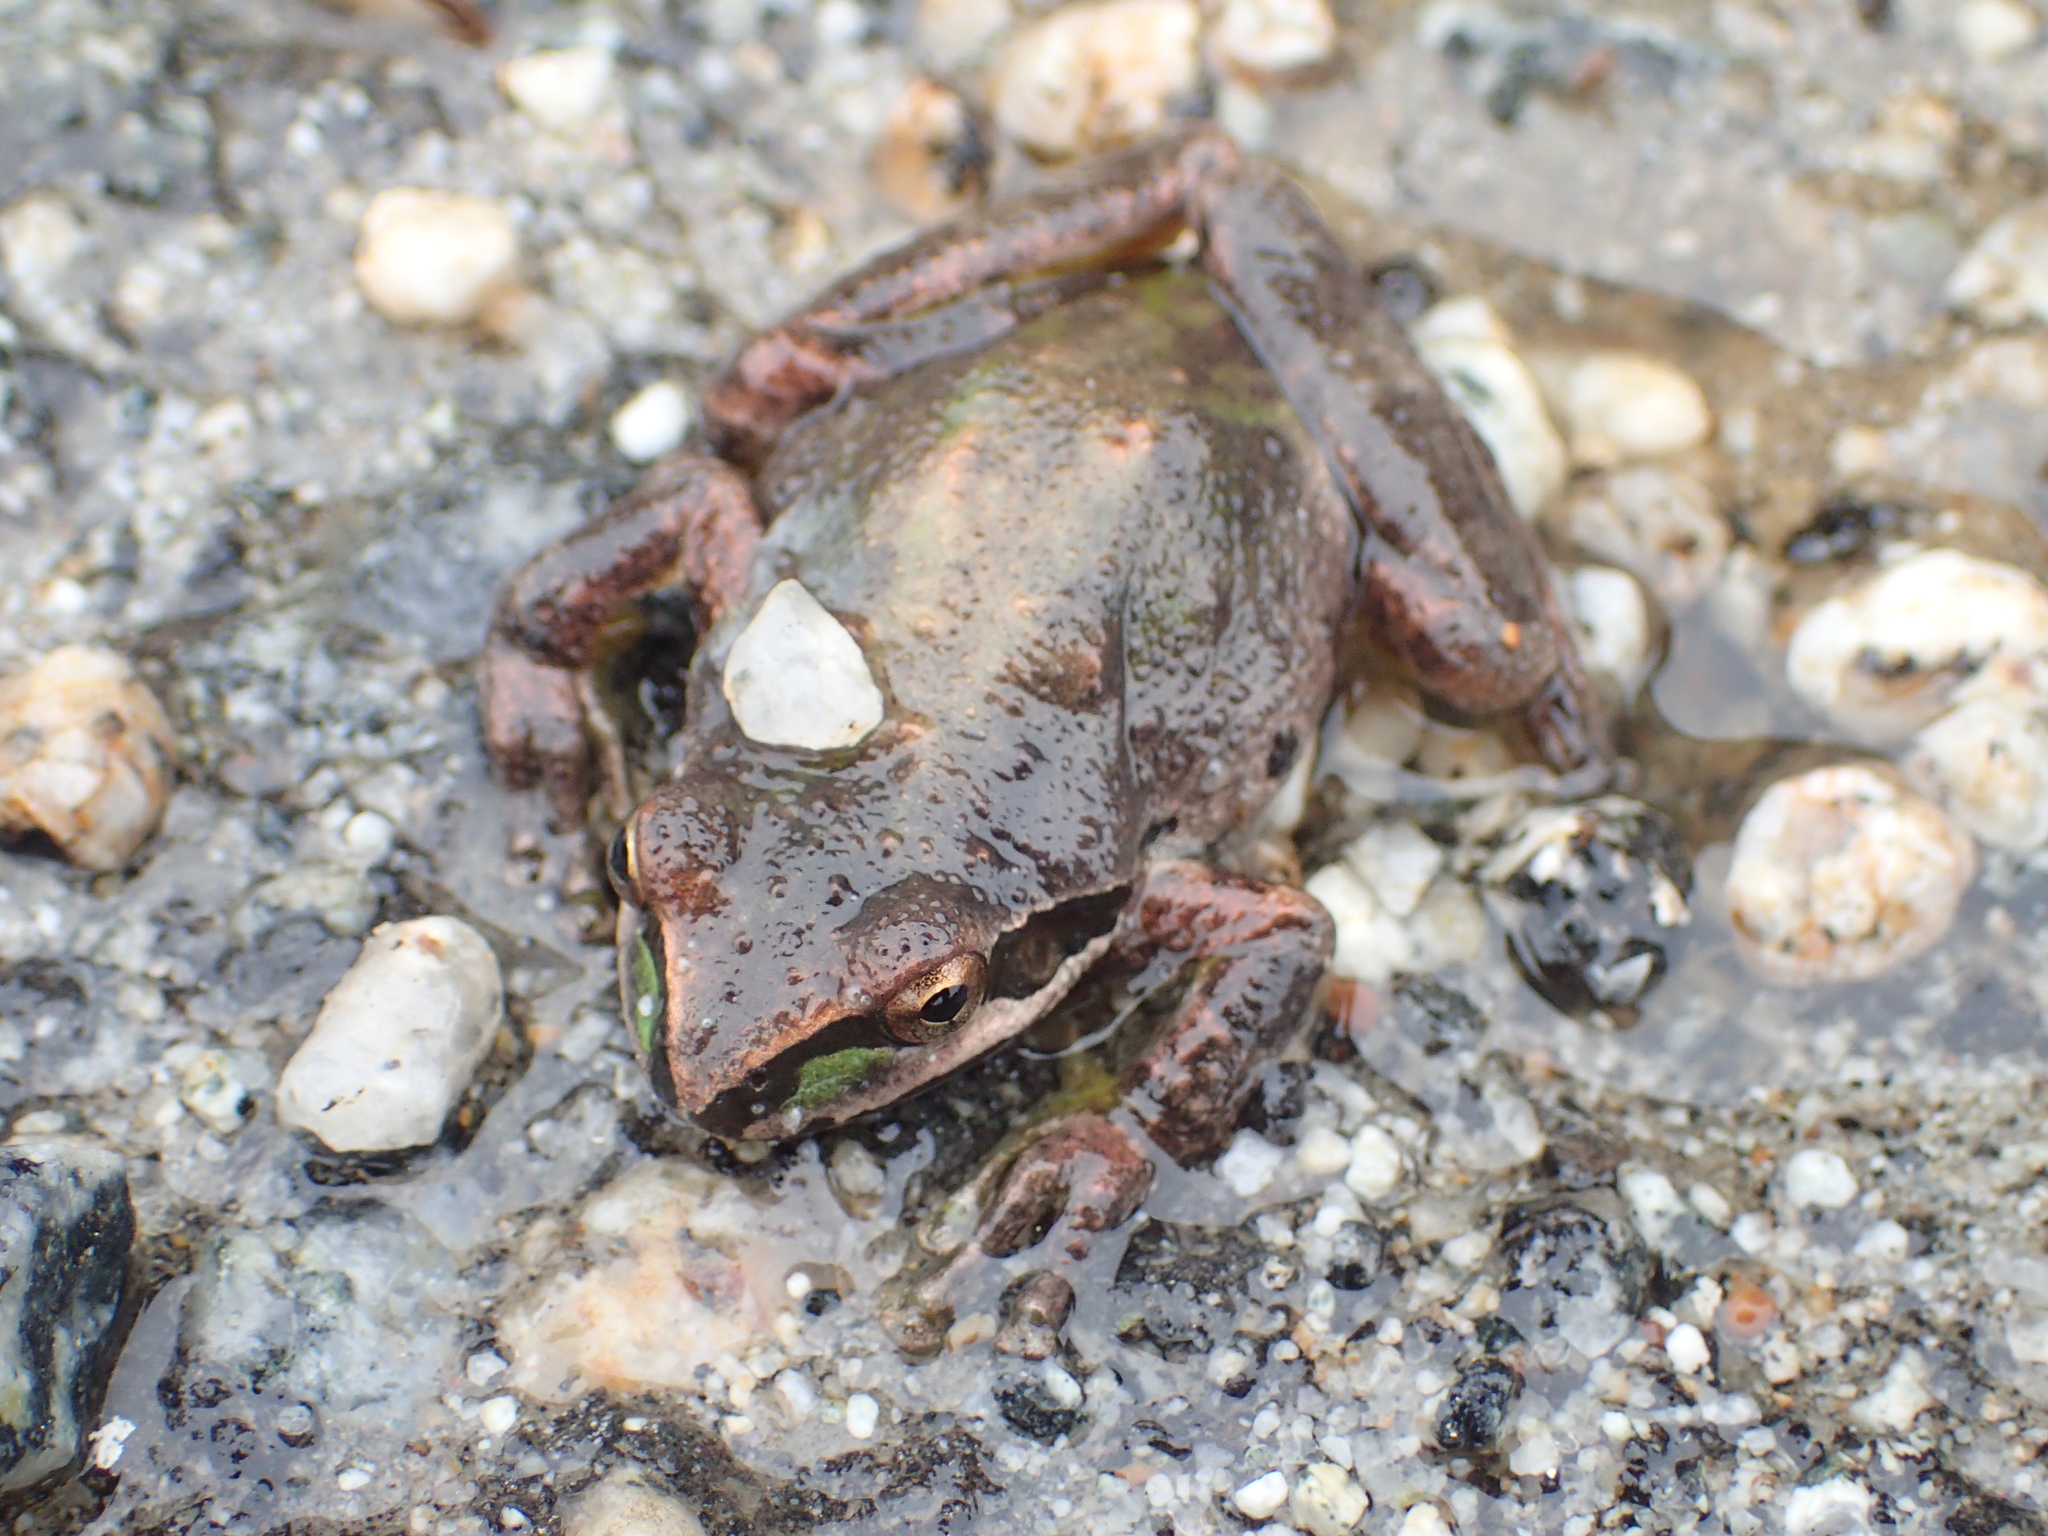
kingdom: Animalia
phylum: Chordata
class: Amphibia
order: Anura
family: Hylidae
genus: Pseudacris
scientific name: Pseudacris regilla
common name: Pacific chorus frog
